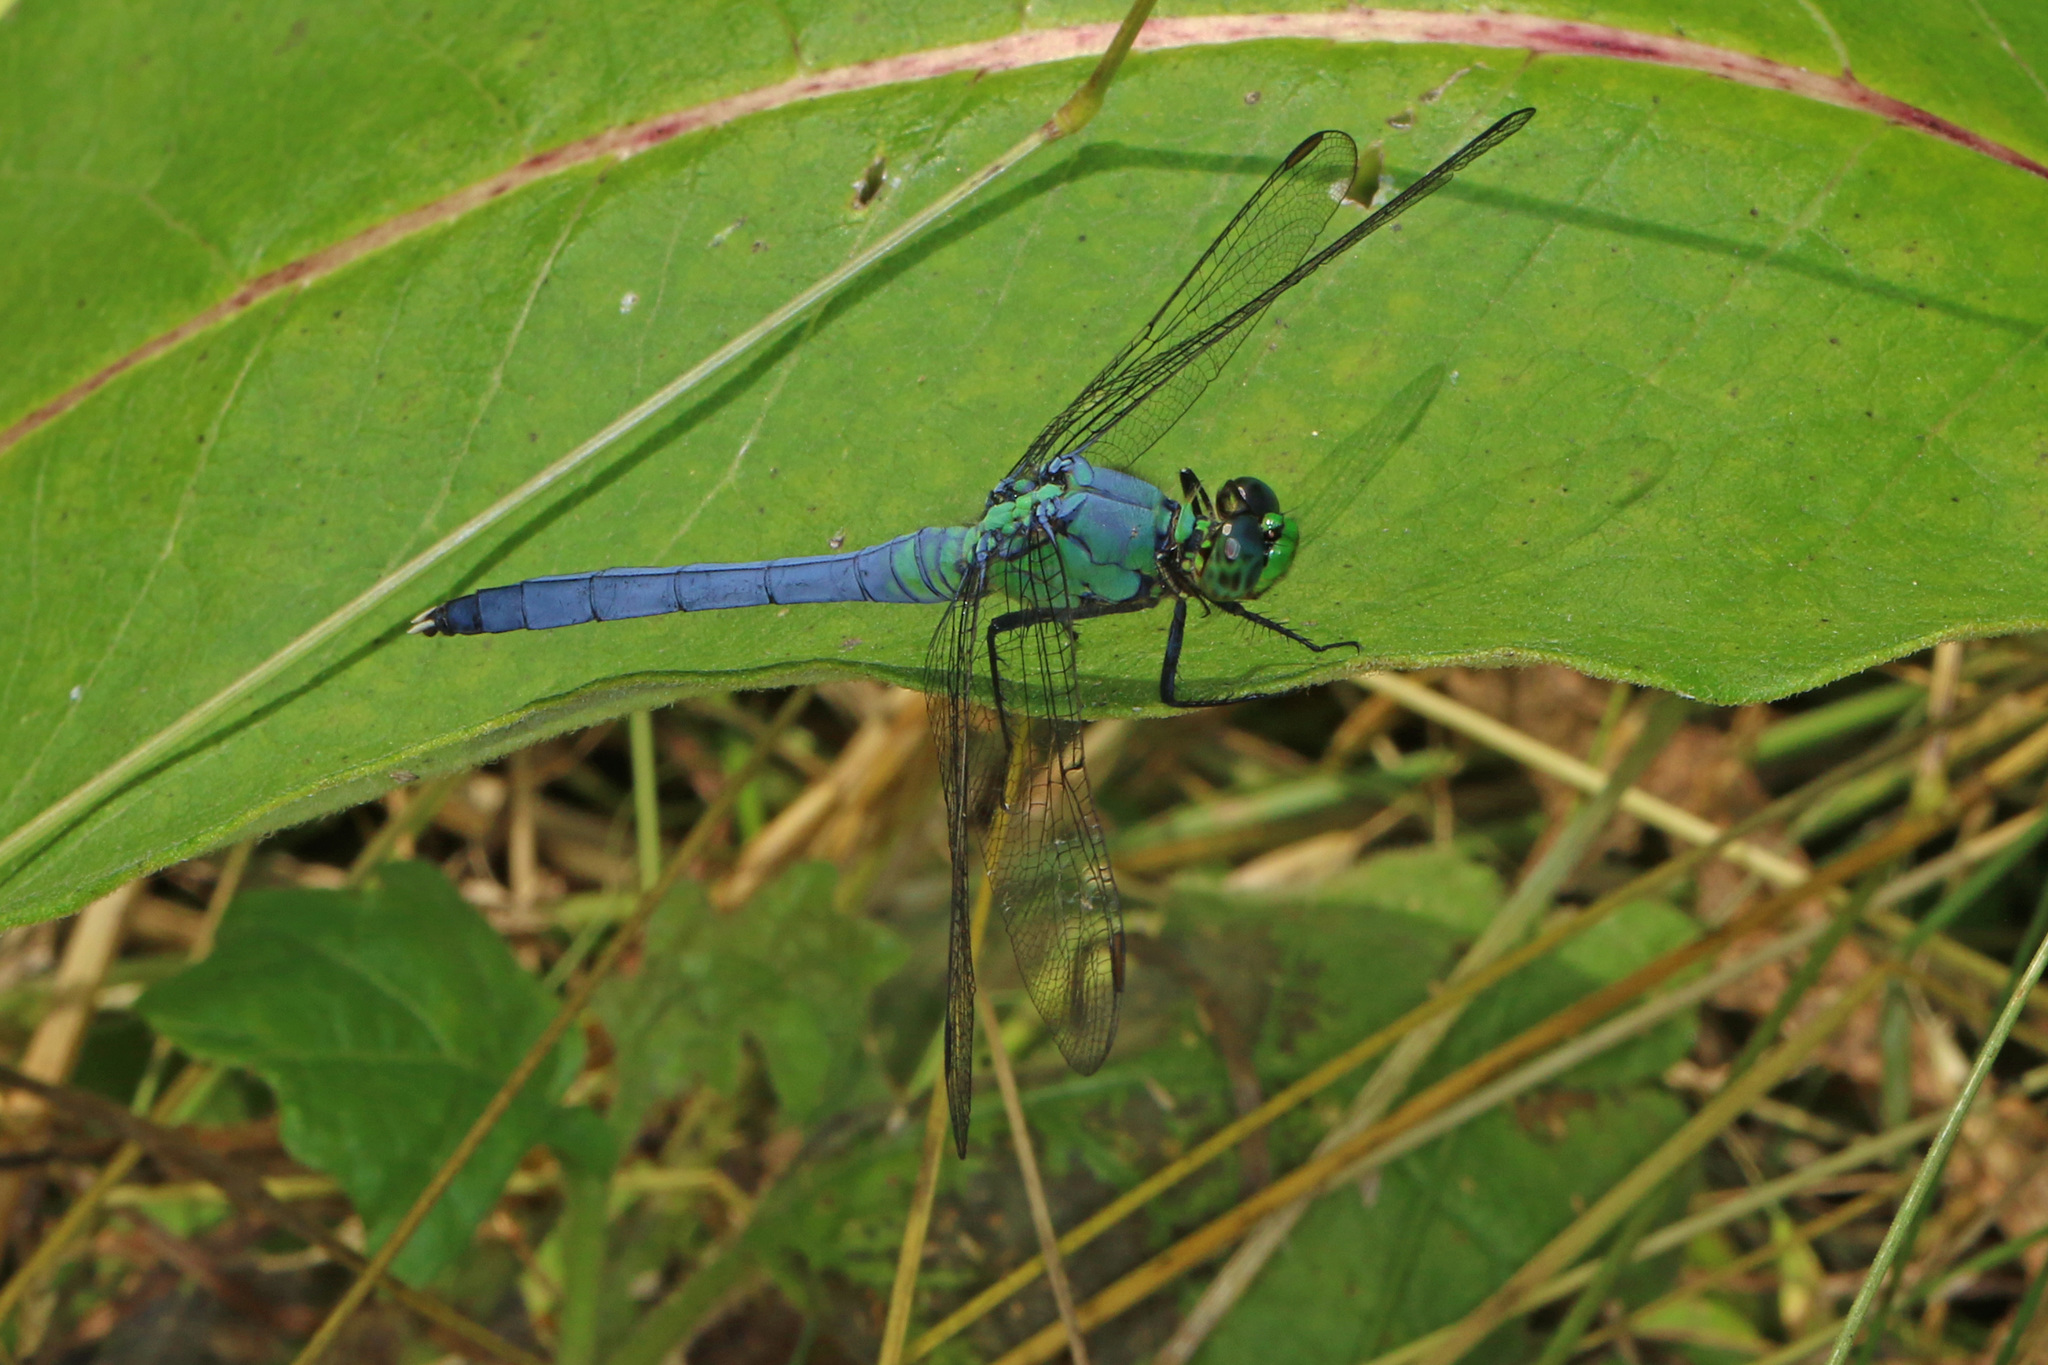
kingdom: Animalia
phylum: Arthropoda
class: Insecta
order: Odonata
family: Libellulidae
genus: Erythemis
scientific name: Erythemis simplicicollis
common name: Eastern pondhawk
